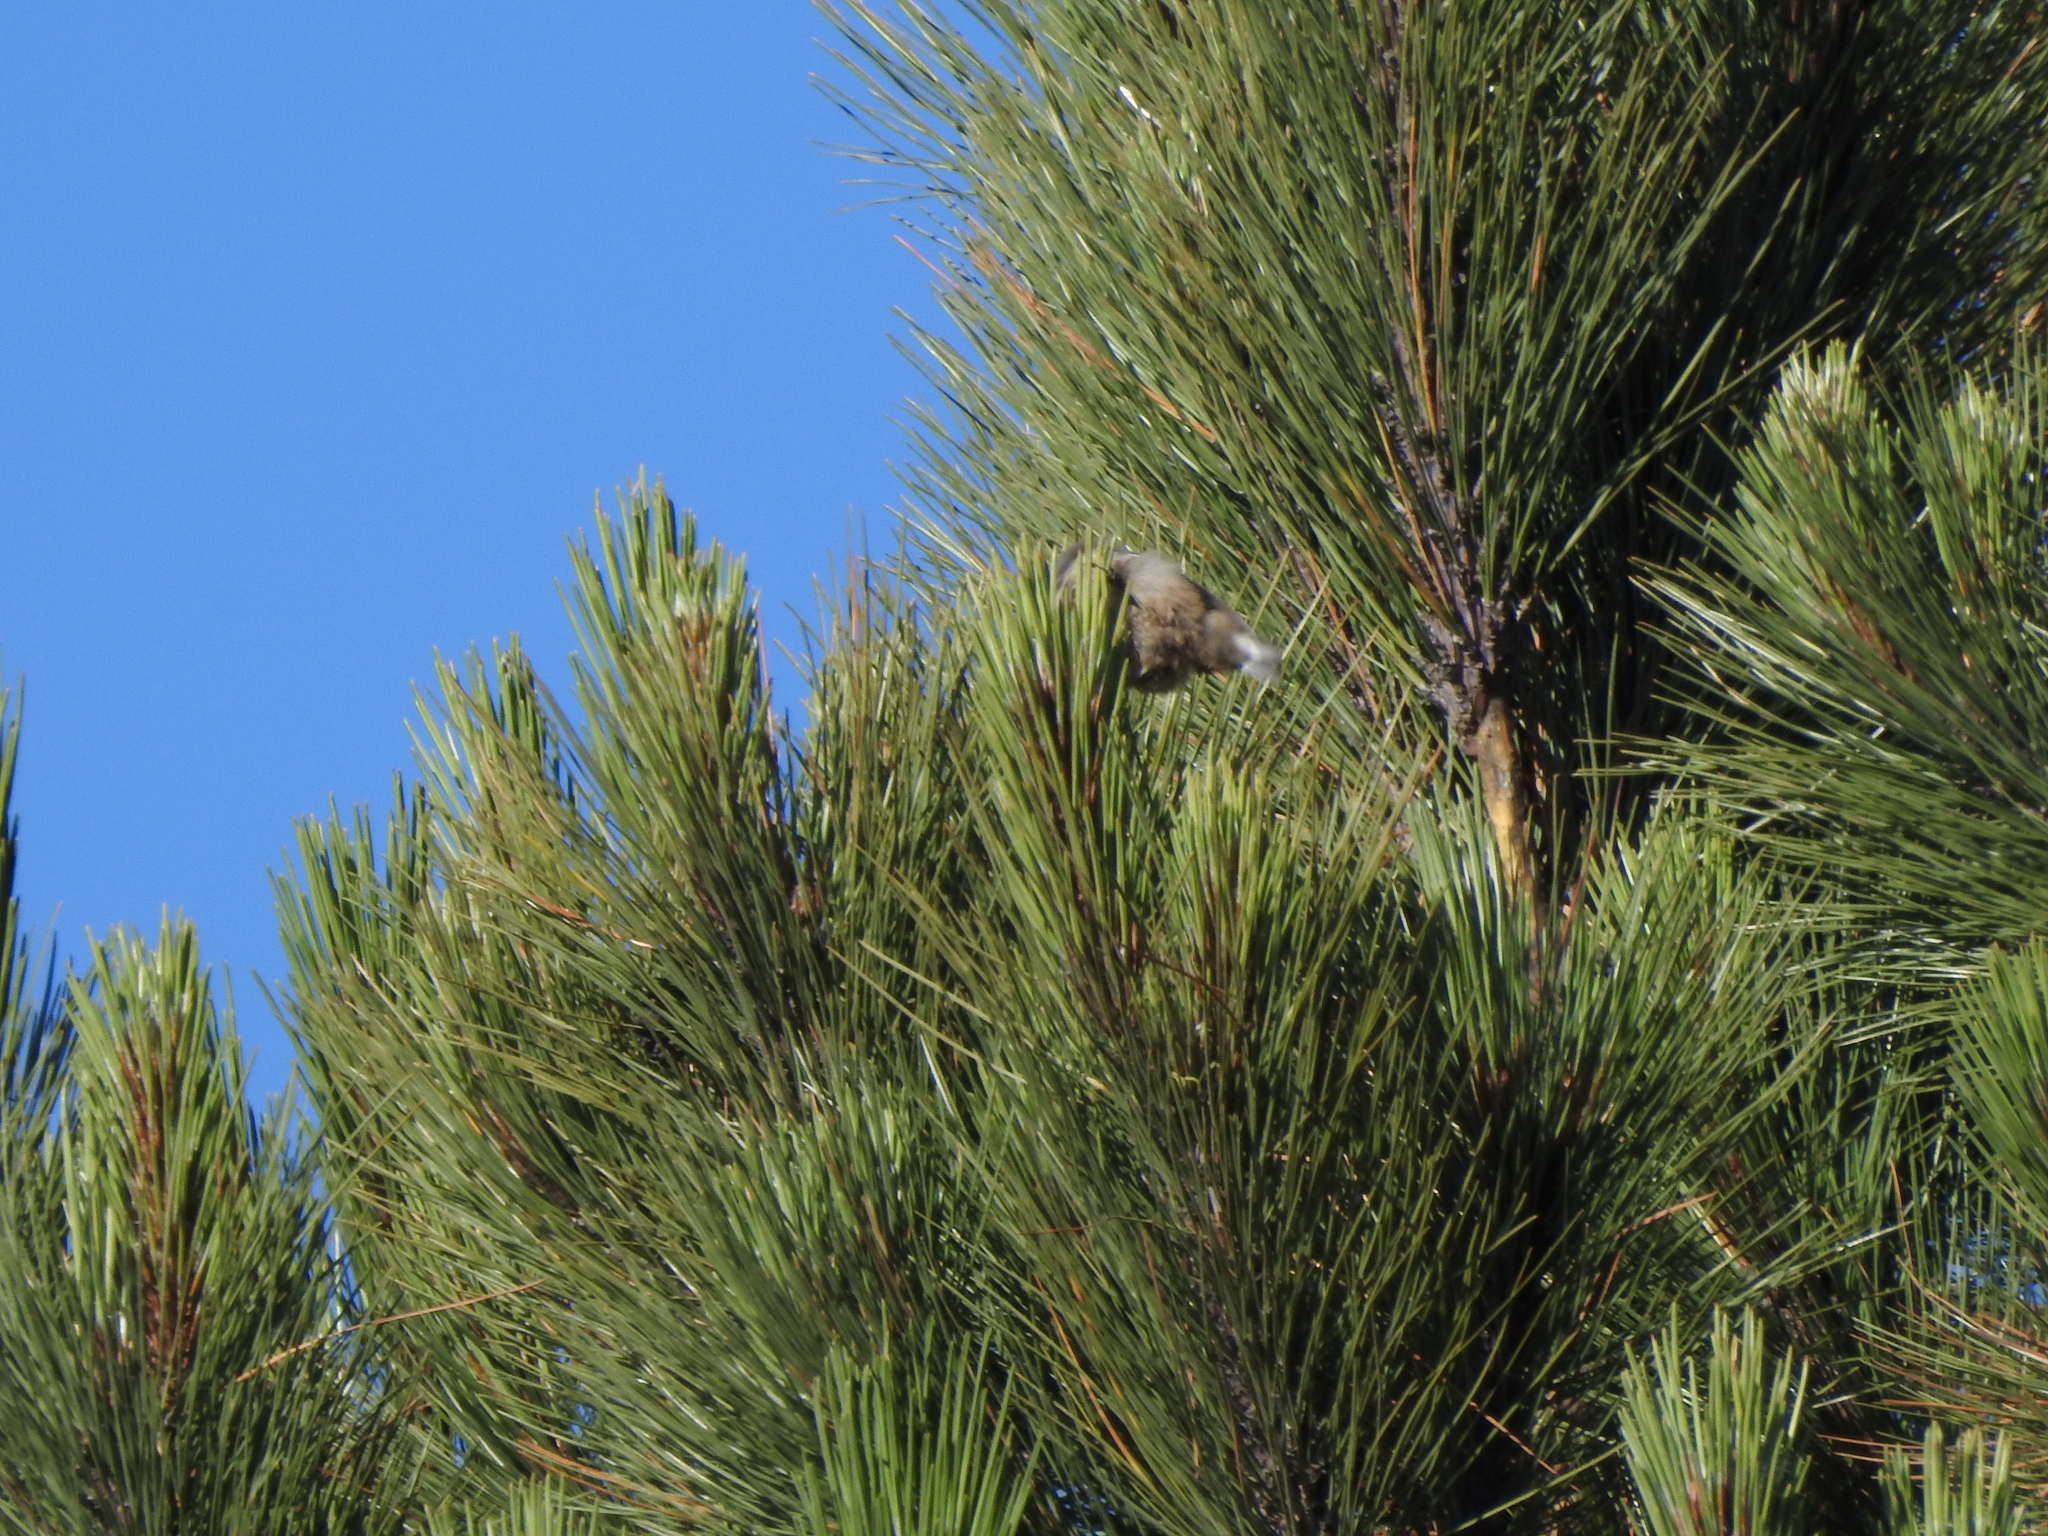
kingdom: Animalia
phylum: Chordata
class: Aves
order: Passeriformes
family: Sittidae
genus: Sitta
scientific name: Sitta pygmaea
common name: Pygmy nuthatch
